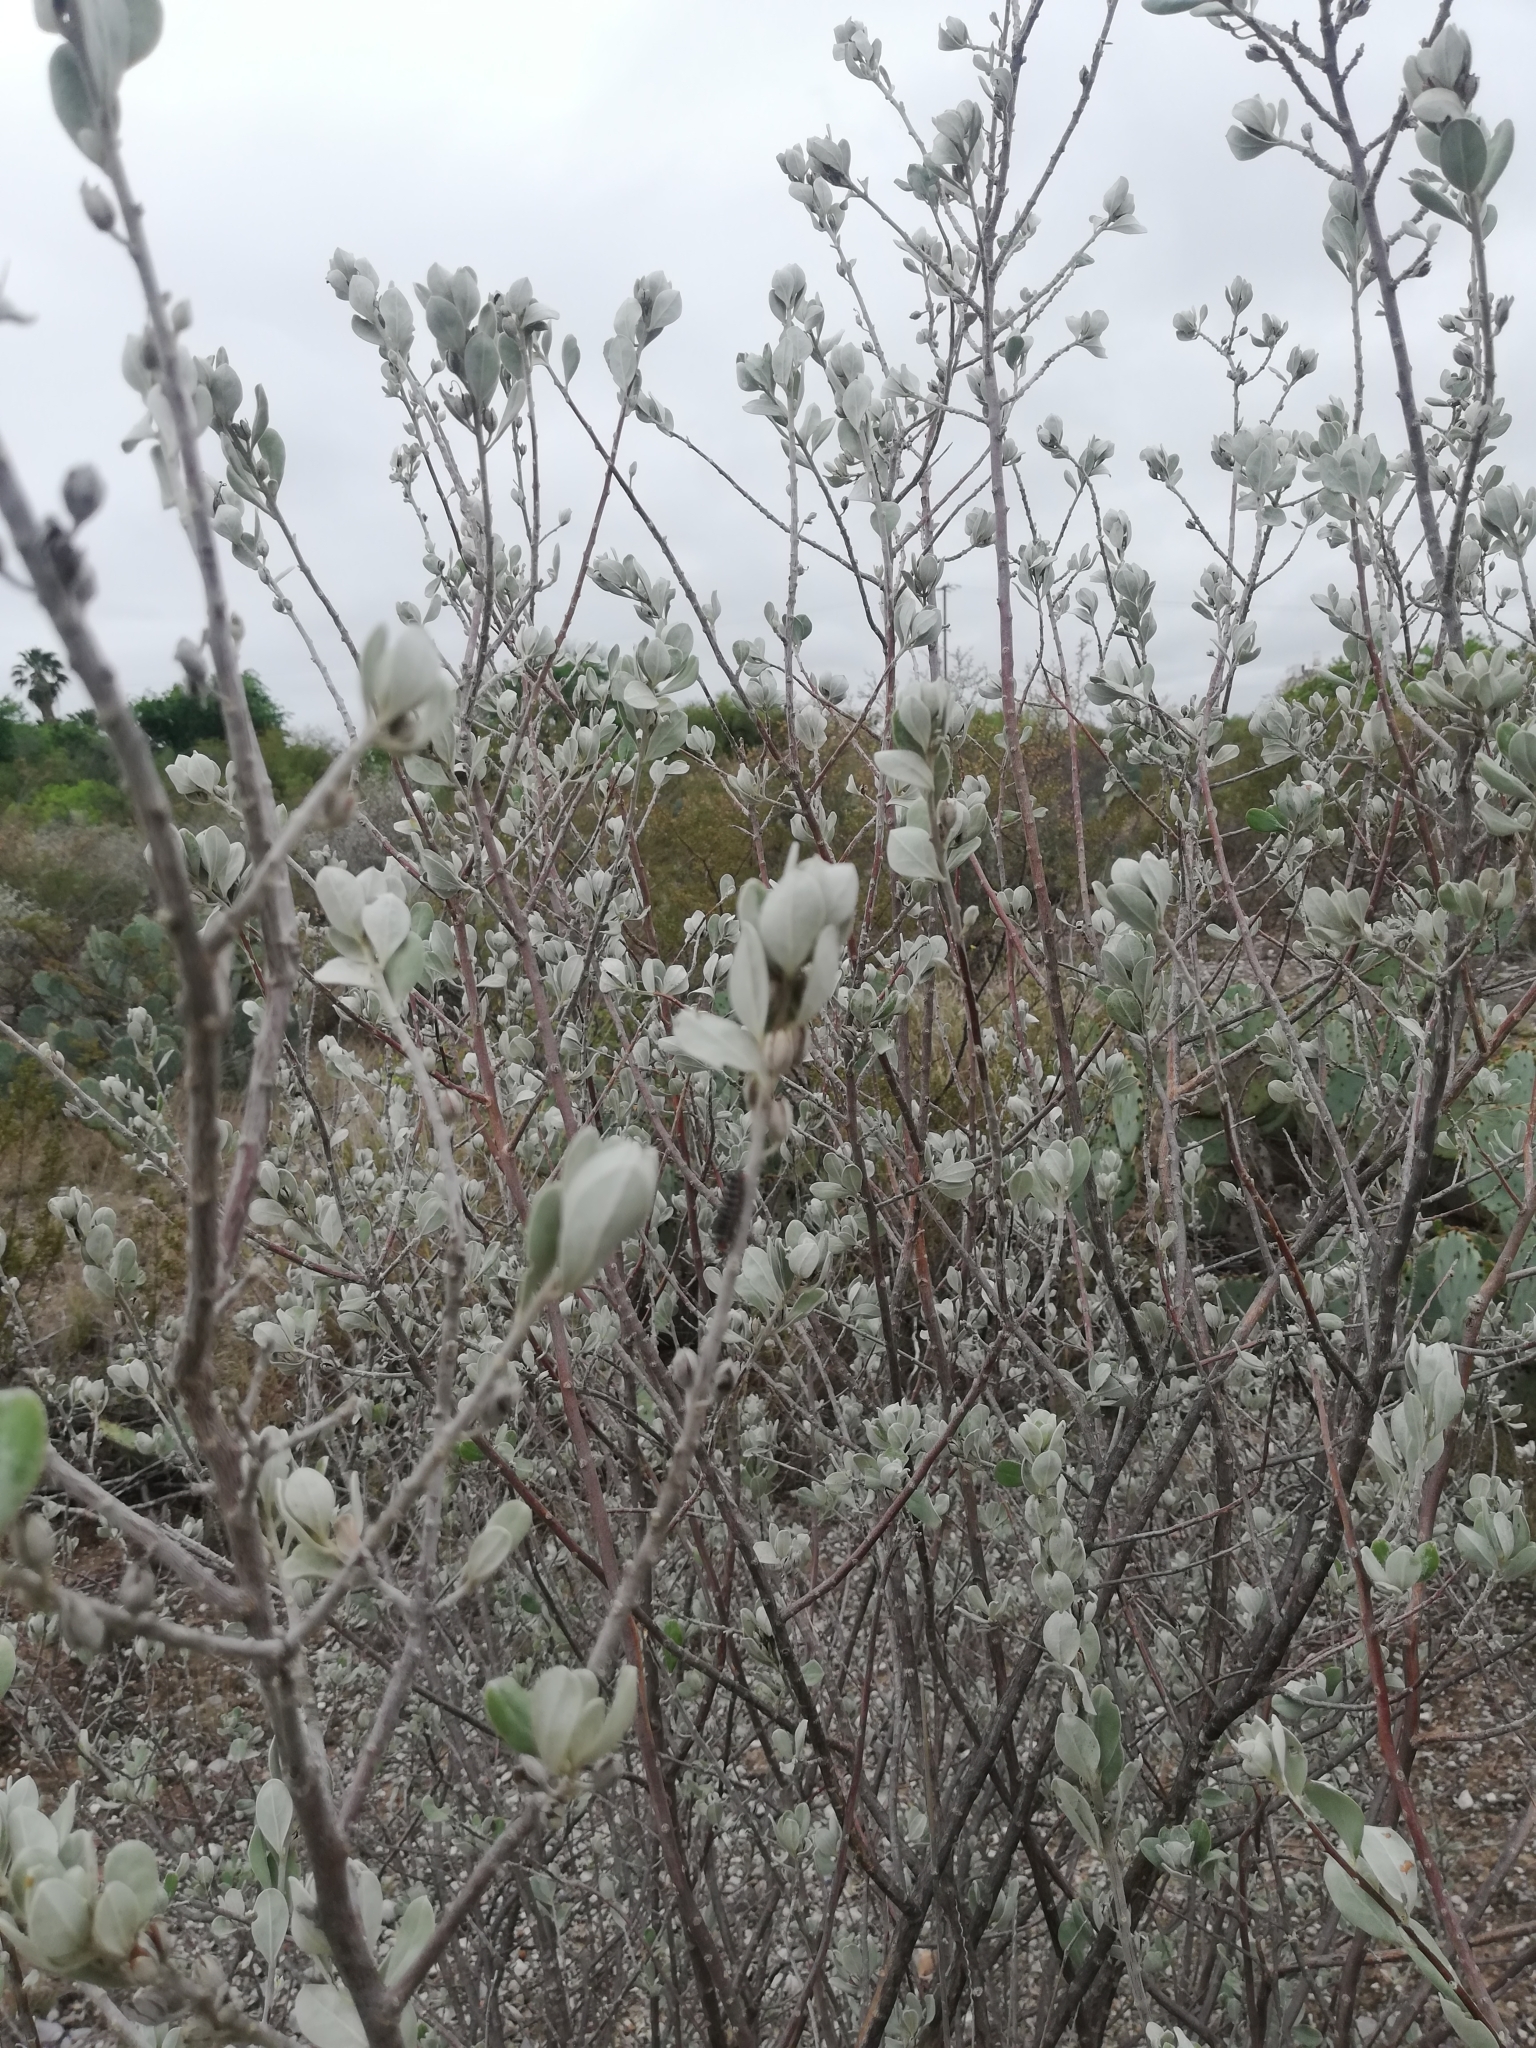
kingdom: Animalia
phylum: Arthropoda
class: Insecta
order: Lepidoptera
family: Nymphalidae
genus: Thessalia
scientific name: Thessalia theona
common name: Nymphalid moth
